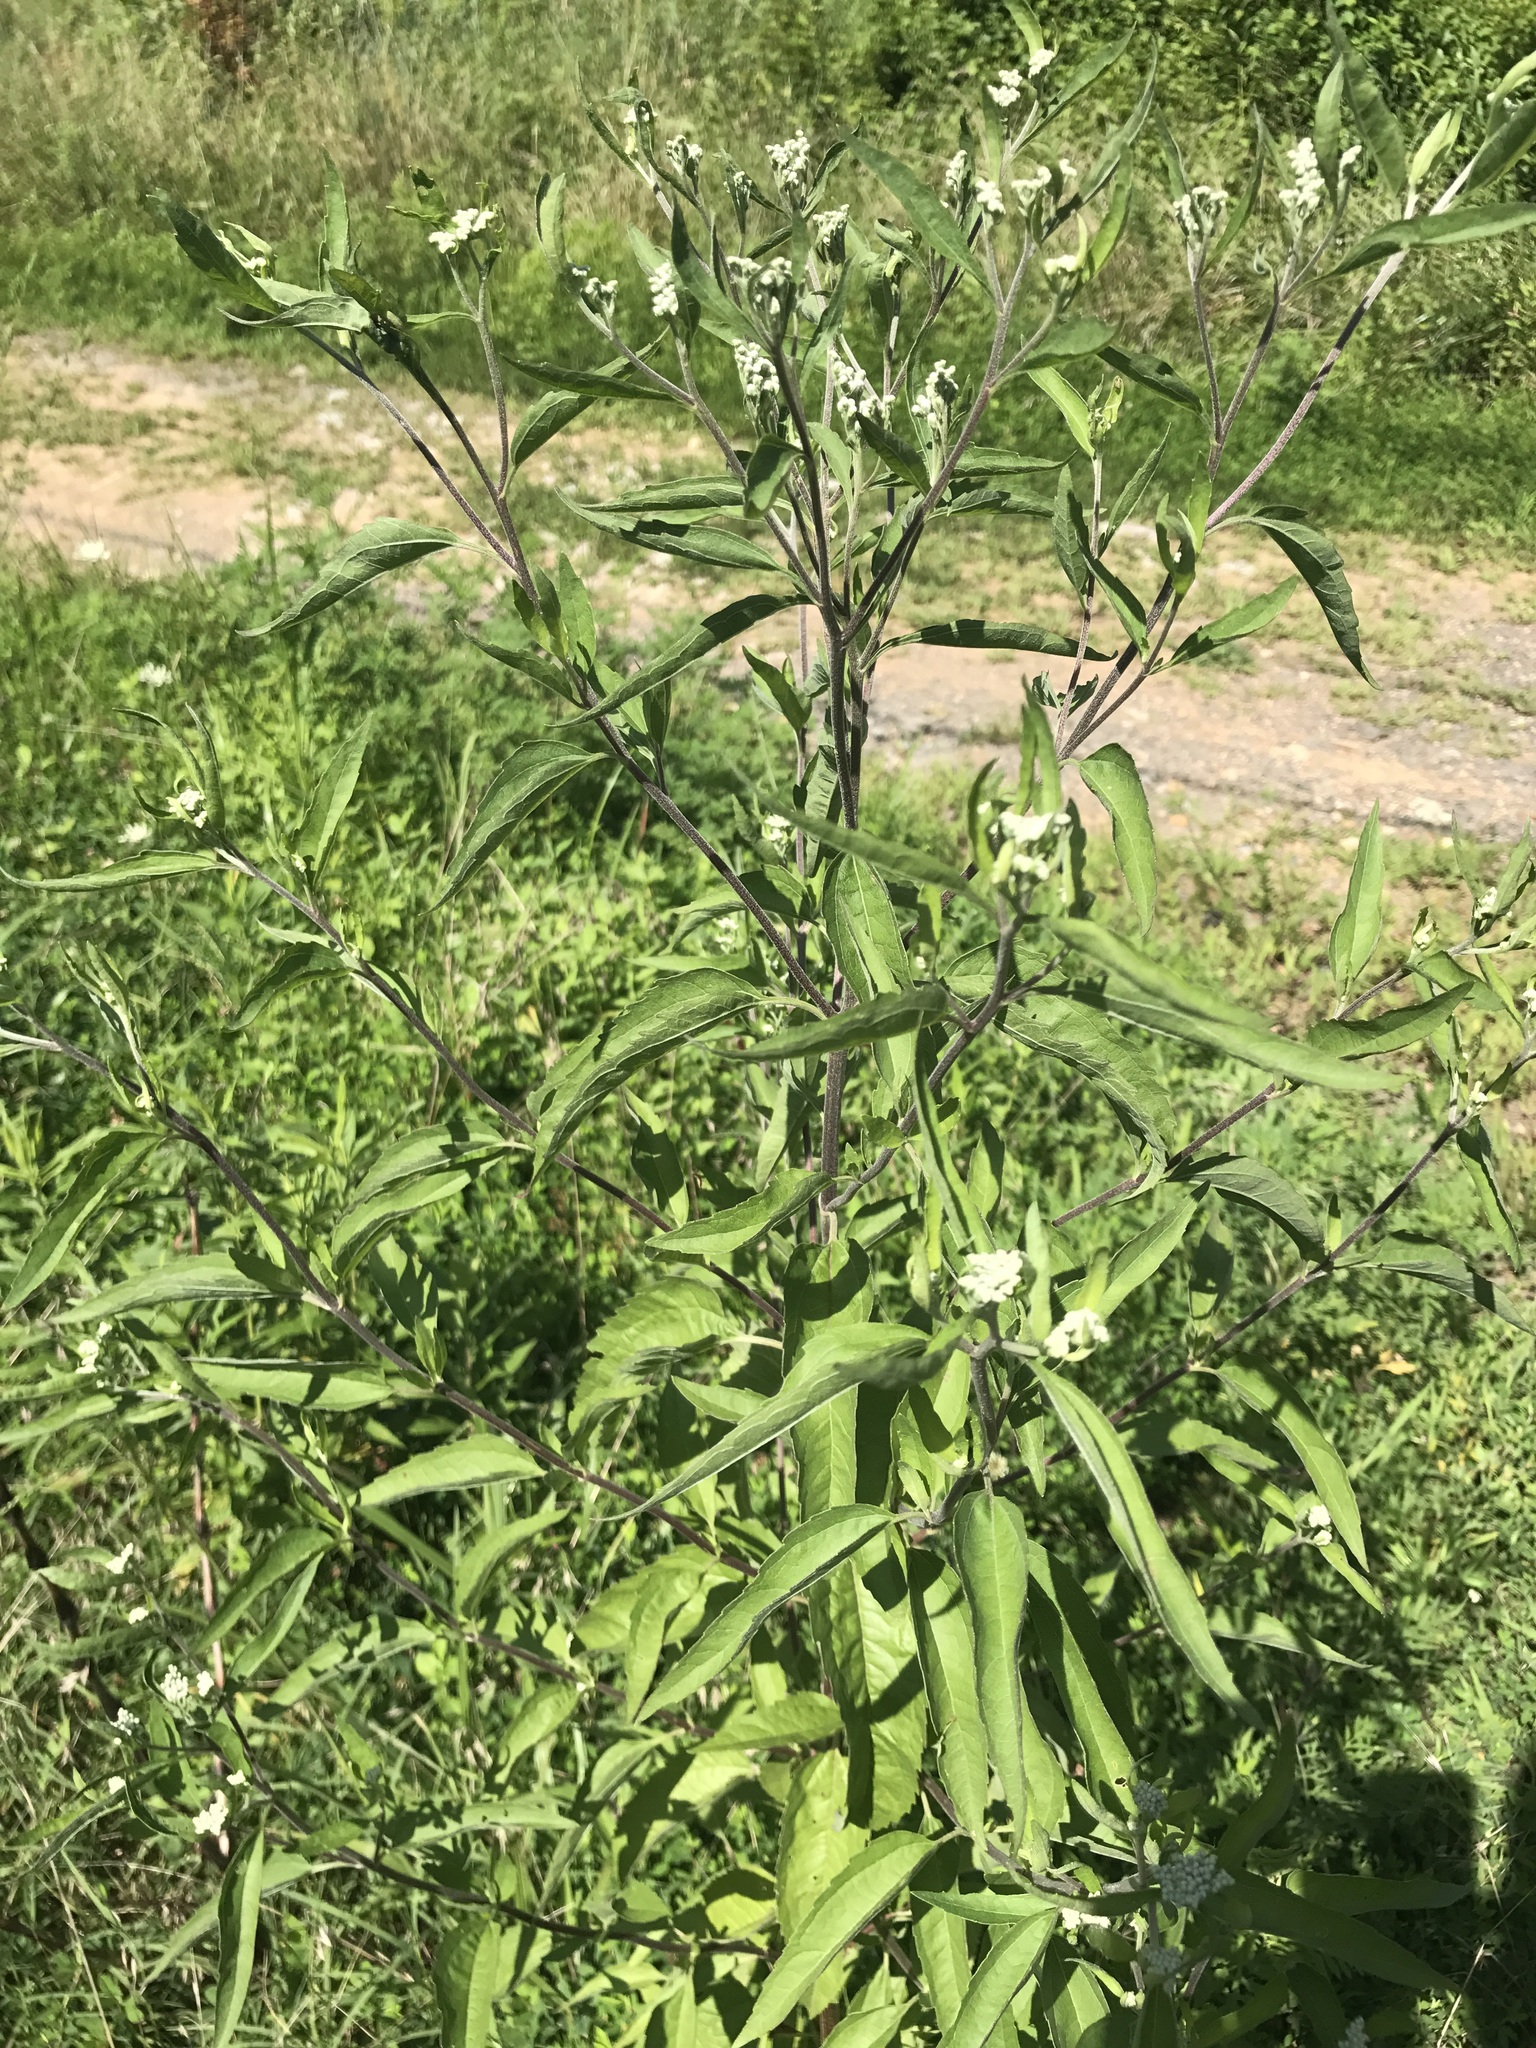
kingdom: Plantae
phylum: Tracheophyta
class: Magnoliopsida
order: Asterales
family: Asteraceae
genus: Eupatorium
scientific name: Eupatorium serotinum
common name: Late boneset
